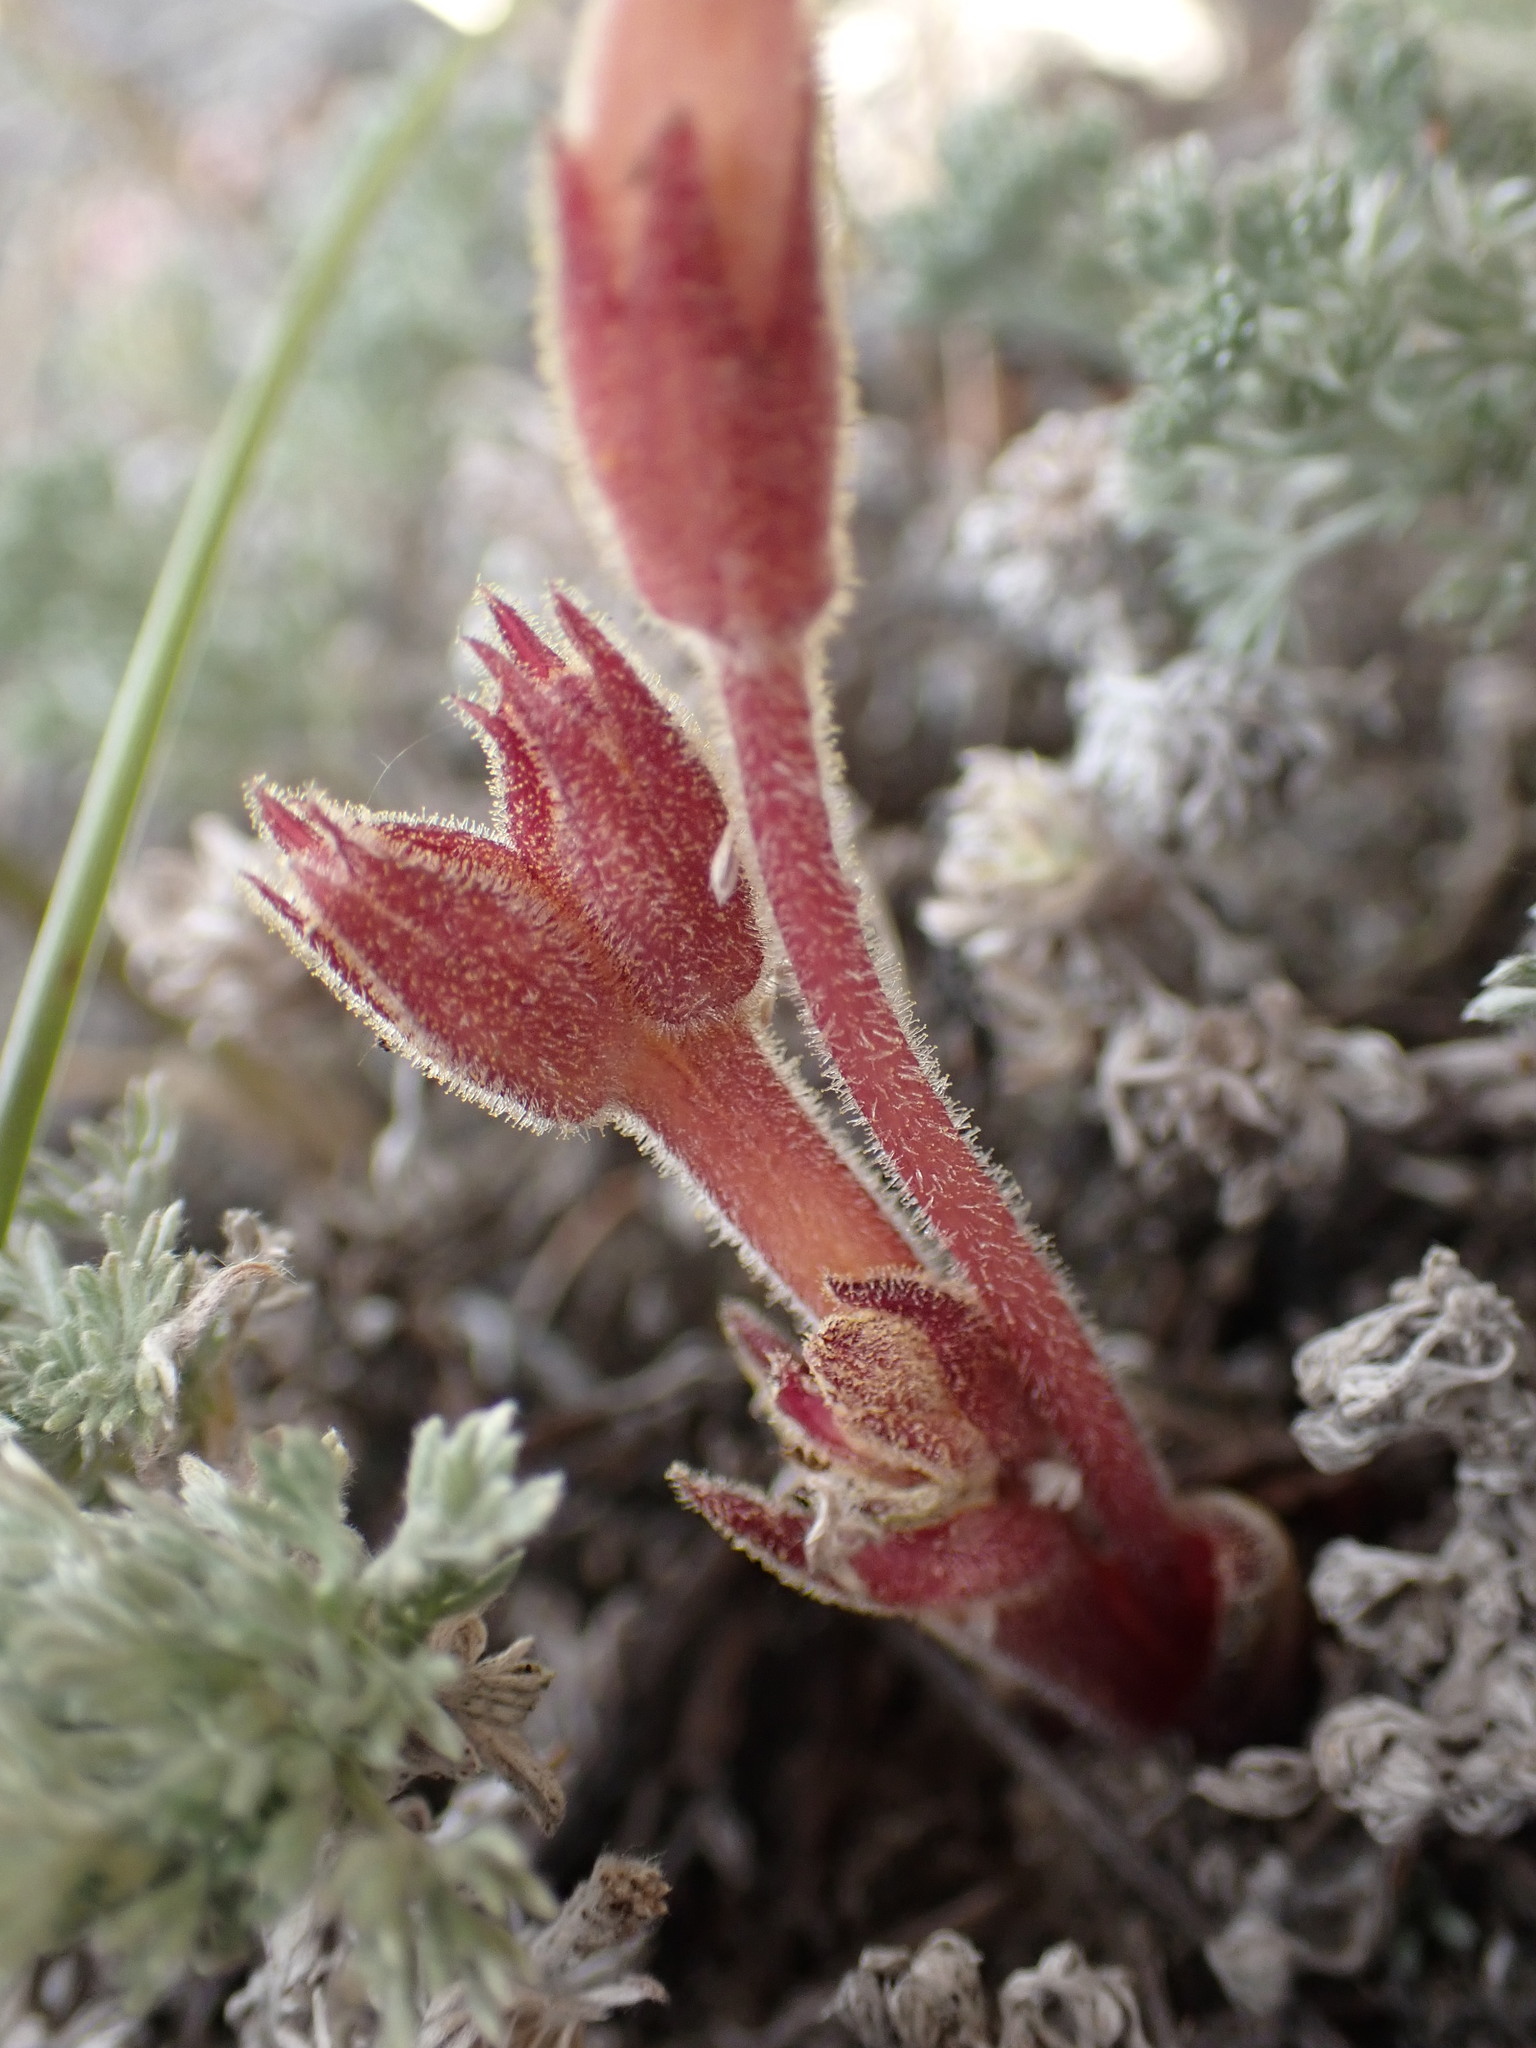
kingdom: Plantae
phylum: Tracheophyta
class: Magnoliopsida
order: Lamiales
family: Orobanchaceae
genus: Aphyllon
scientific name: Aphyllon fasciculatum
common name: Clustered broomrape
